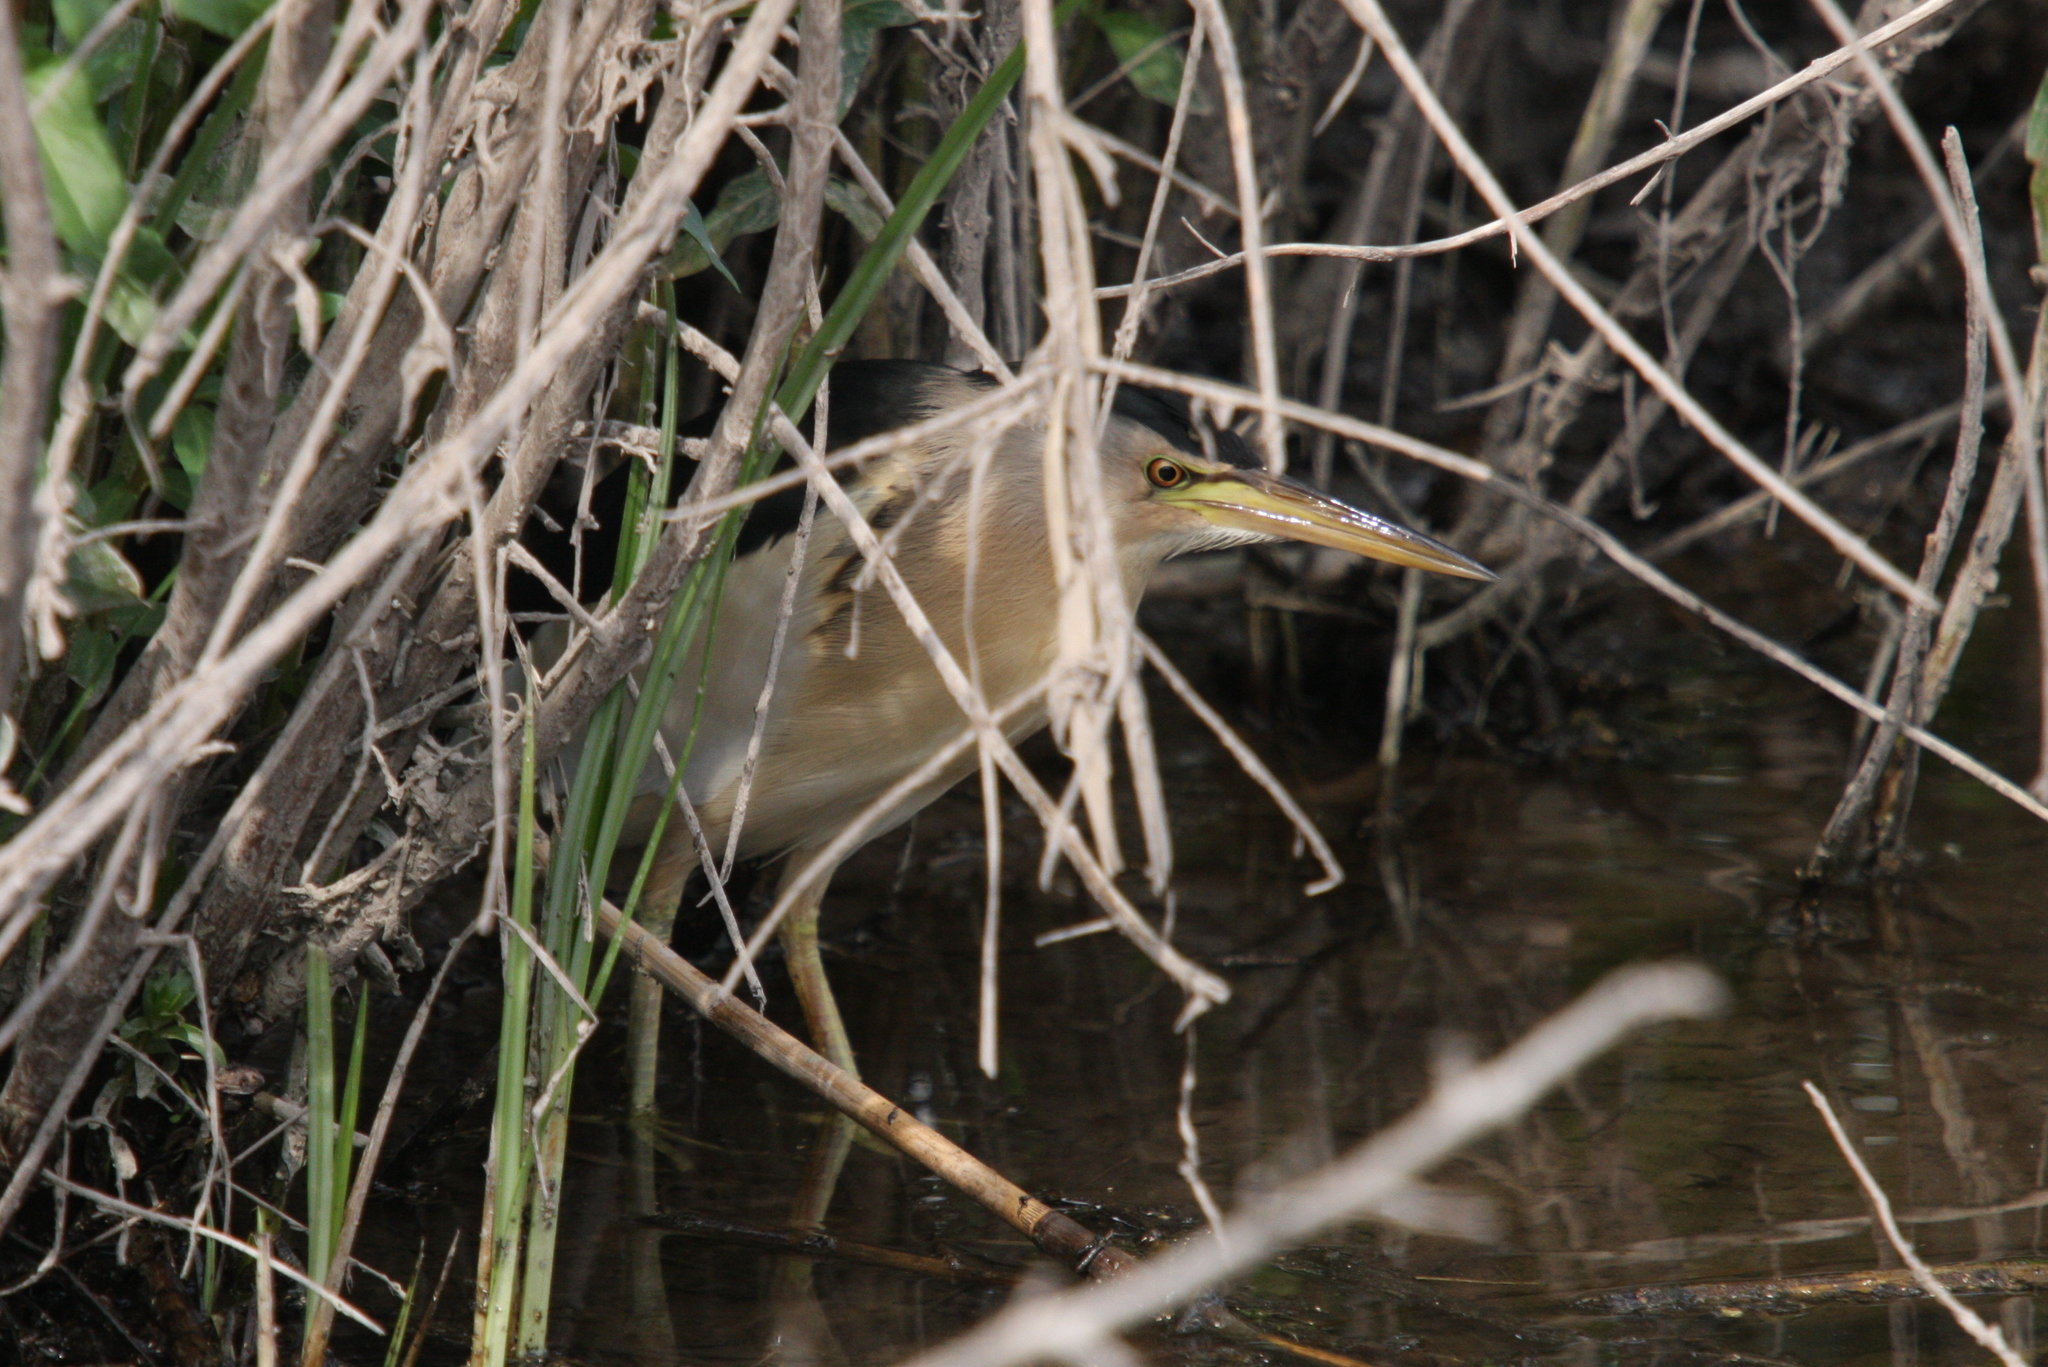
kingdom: Animalia
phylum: Chordata
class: Aves
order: Pelecaniformes
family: Ardeidae
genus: Ixobrychus
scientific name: Ixobrychus minutus
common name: Little bittern
